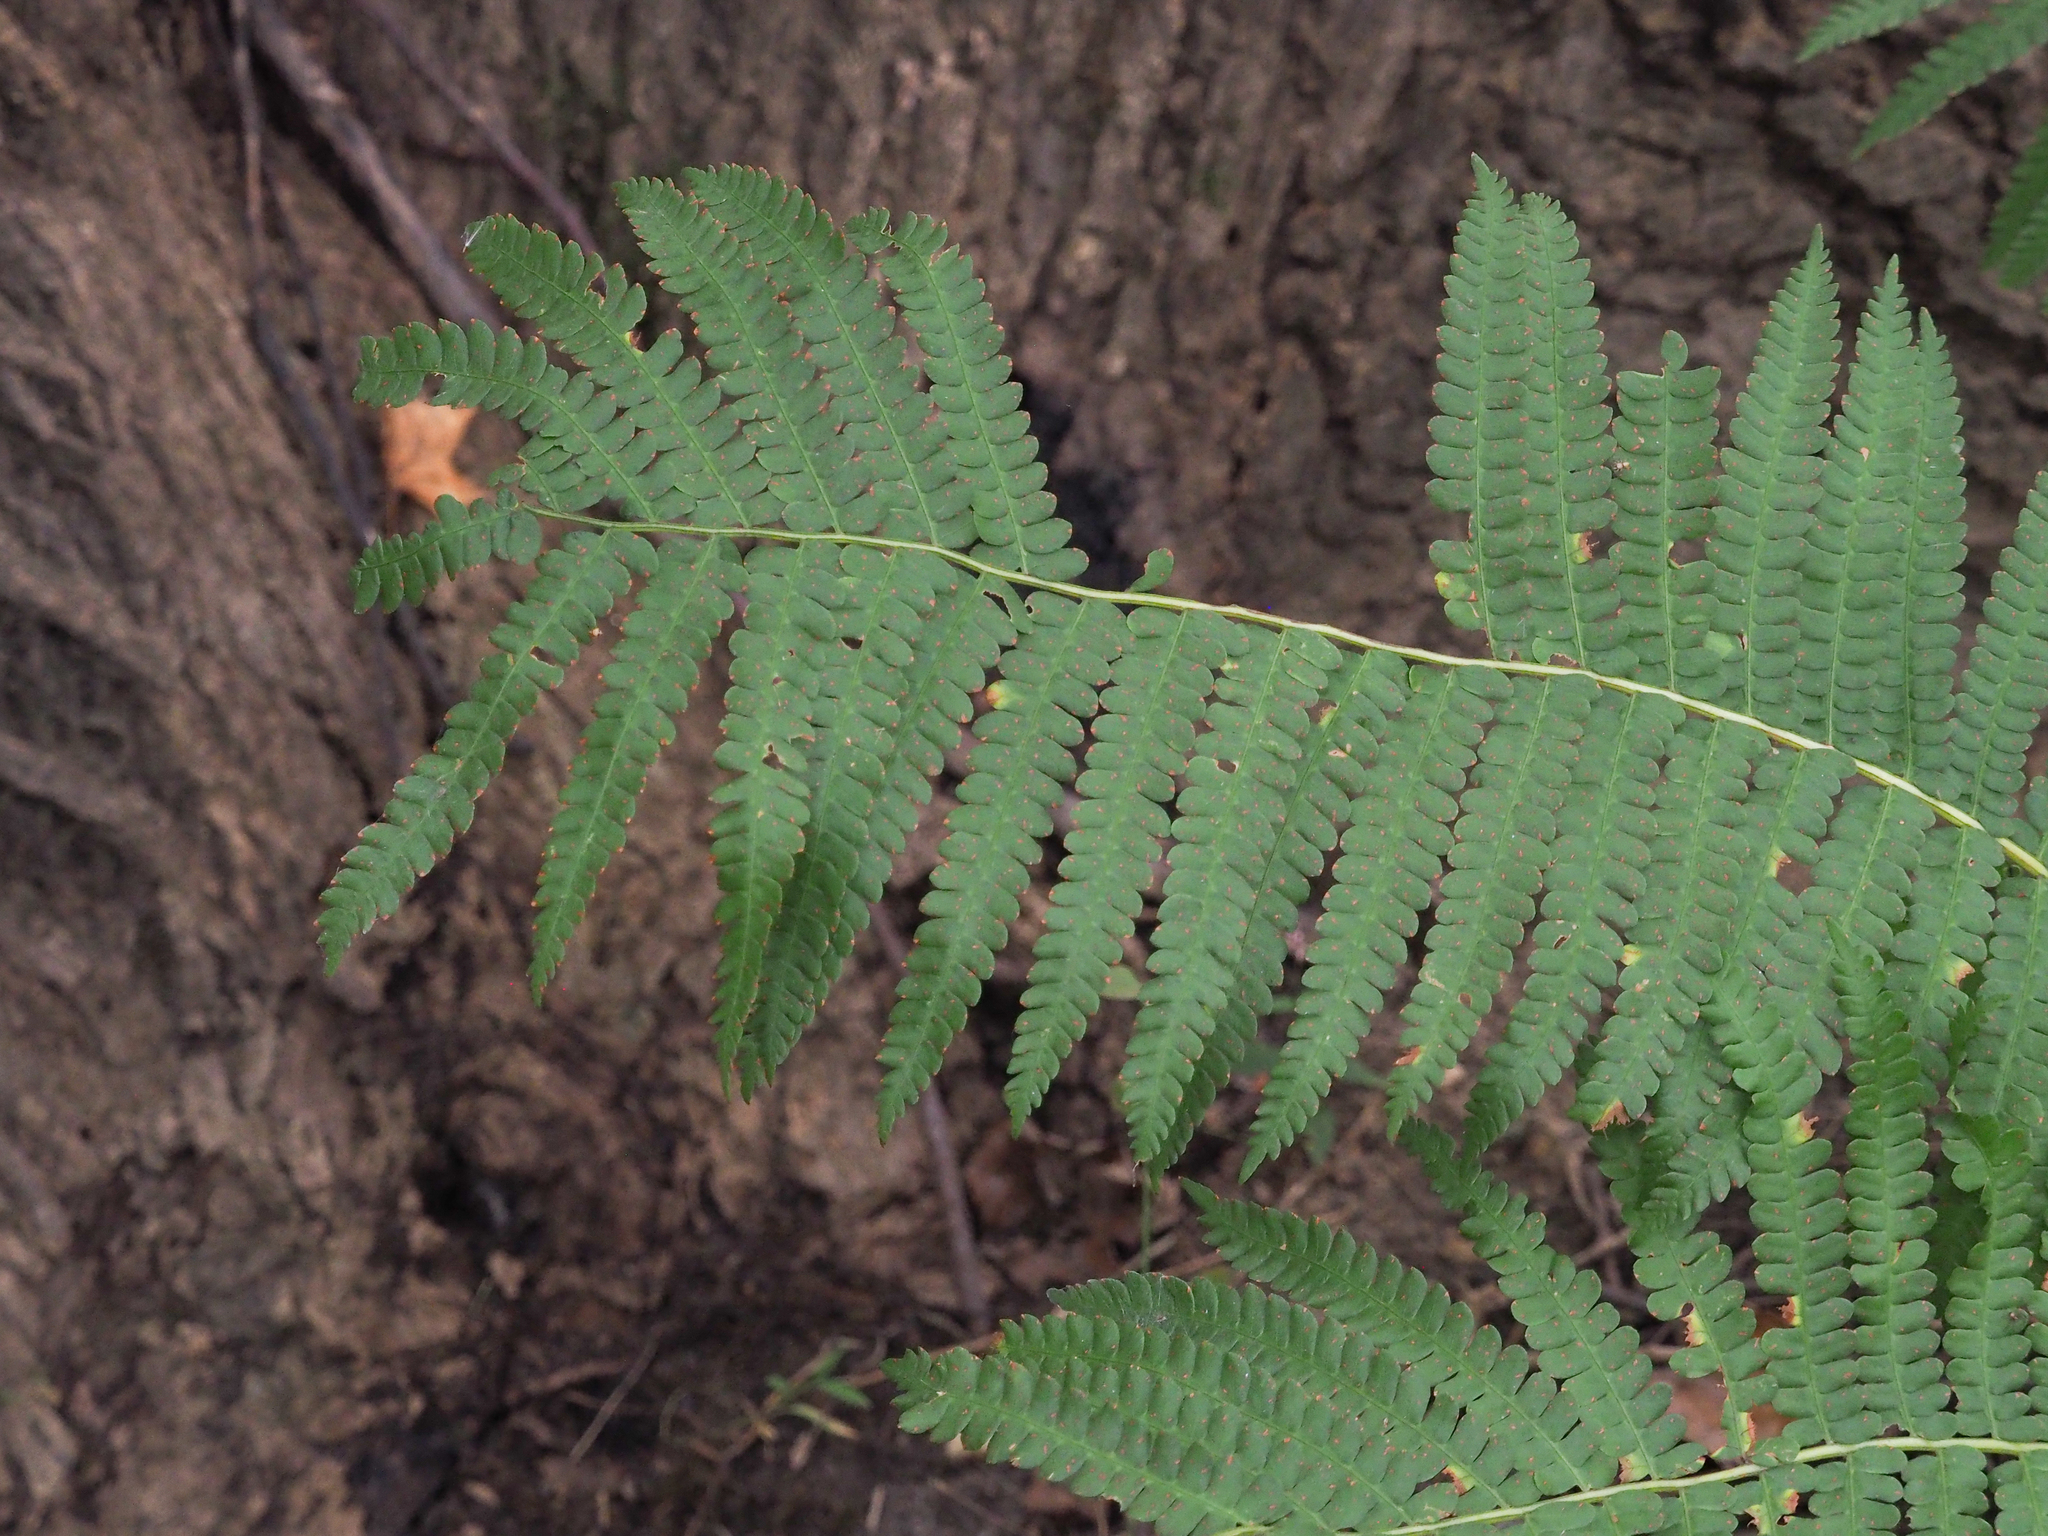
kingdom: Plantae
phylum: Tracheophyta
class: Polypodiopsida
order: Osmundales
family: Osmundaceae
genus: Osmundastrum
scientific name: Osmundastrum cinnamomeum
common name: Cinnamon fern
